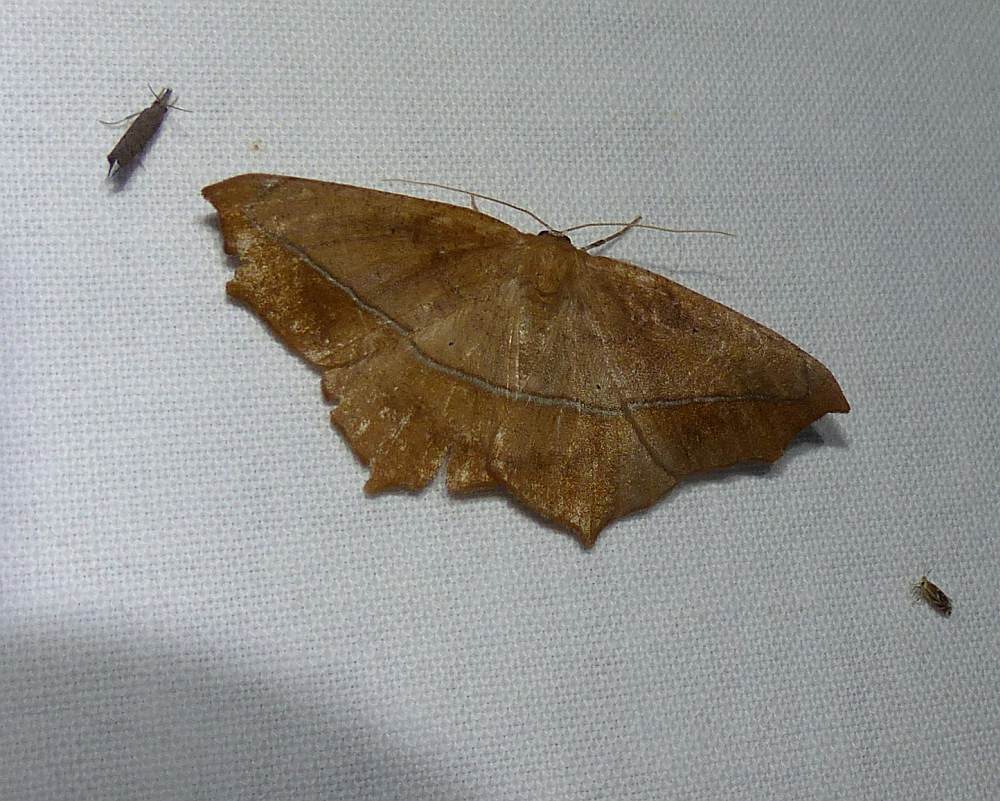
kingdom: Animalia
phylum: Arthropoda
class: Insecta
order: Lepidoptera
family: Geometridae
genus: Prochoerodes
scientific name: Prochoerodes lineola
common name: Large maple spanworm
